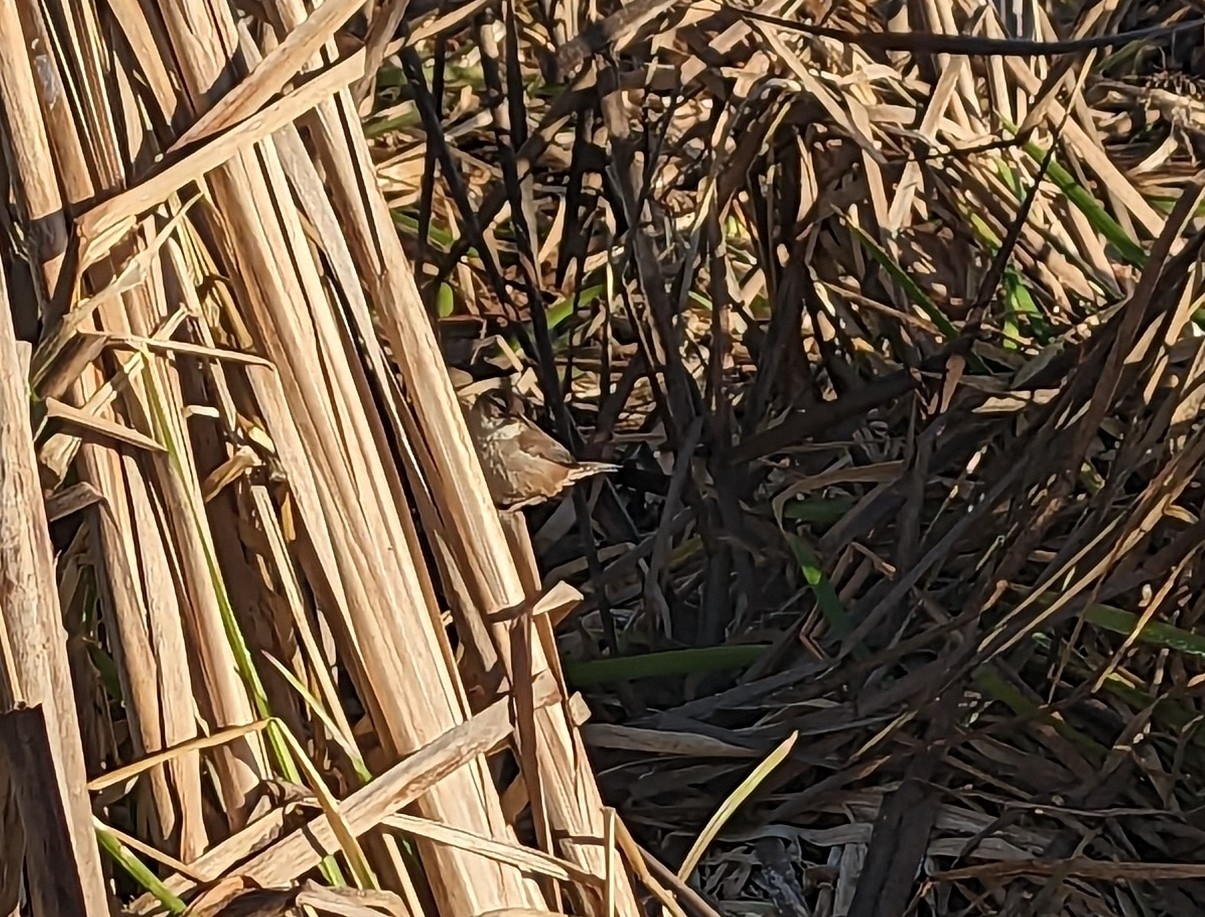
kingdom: Animalia
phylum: Chordata
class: Aves
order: Passeriformes
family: Troglodytidae
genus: Cistothorus
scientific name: Cistothorus palustris
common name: Marsh wren
